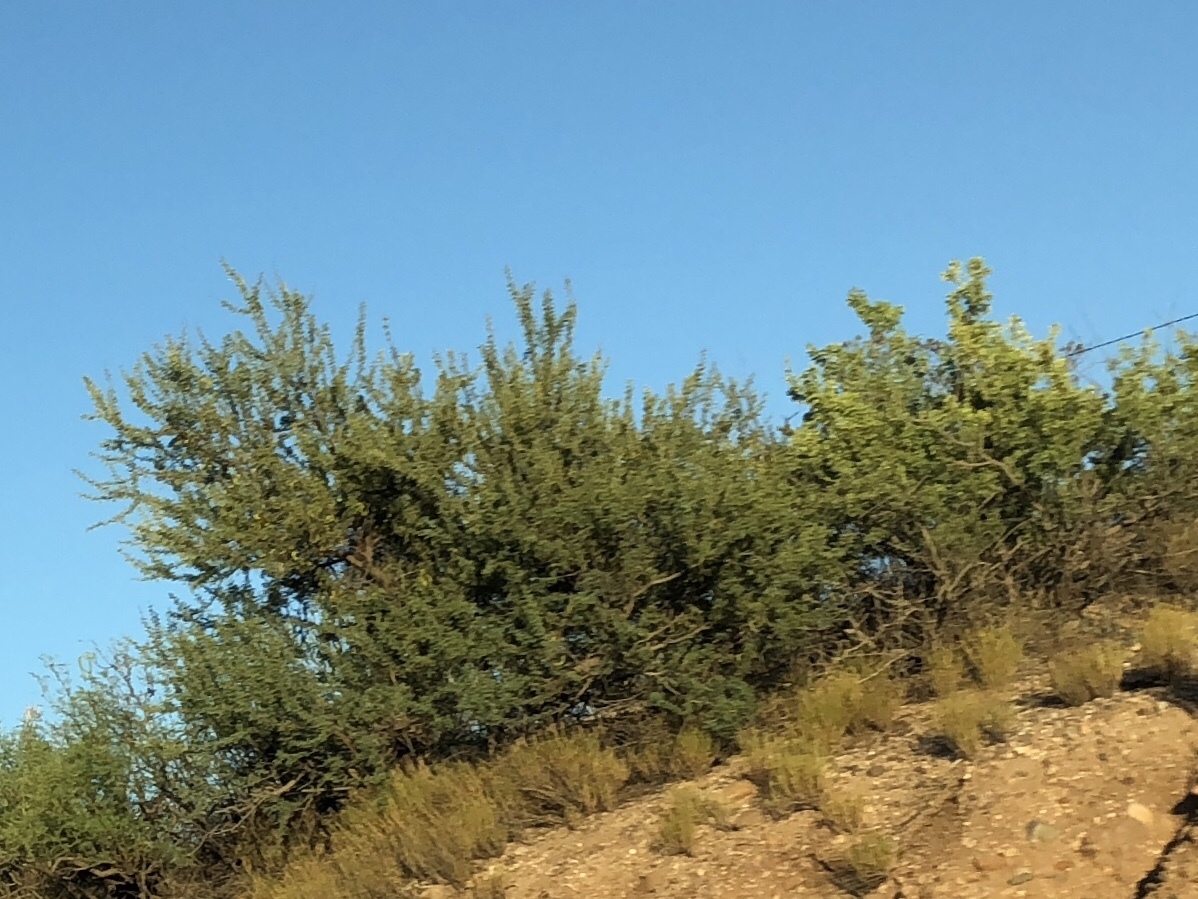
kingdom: Plantae
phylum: Tracheophyta
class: Magnoliopsida
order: Fabales
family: Fabaceae
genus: Senegalia
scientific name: Senegalia greggii
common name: Texas-mimosa
